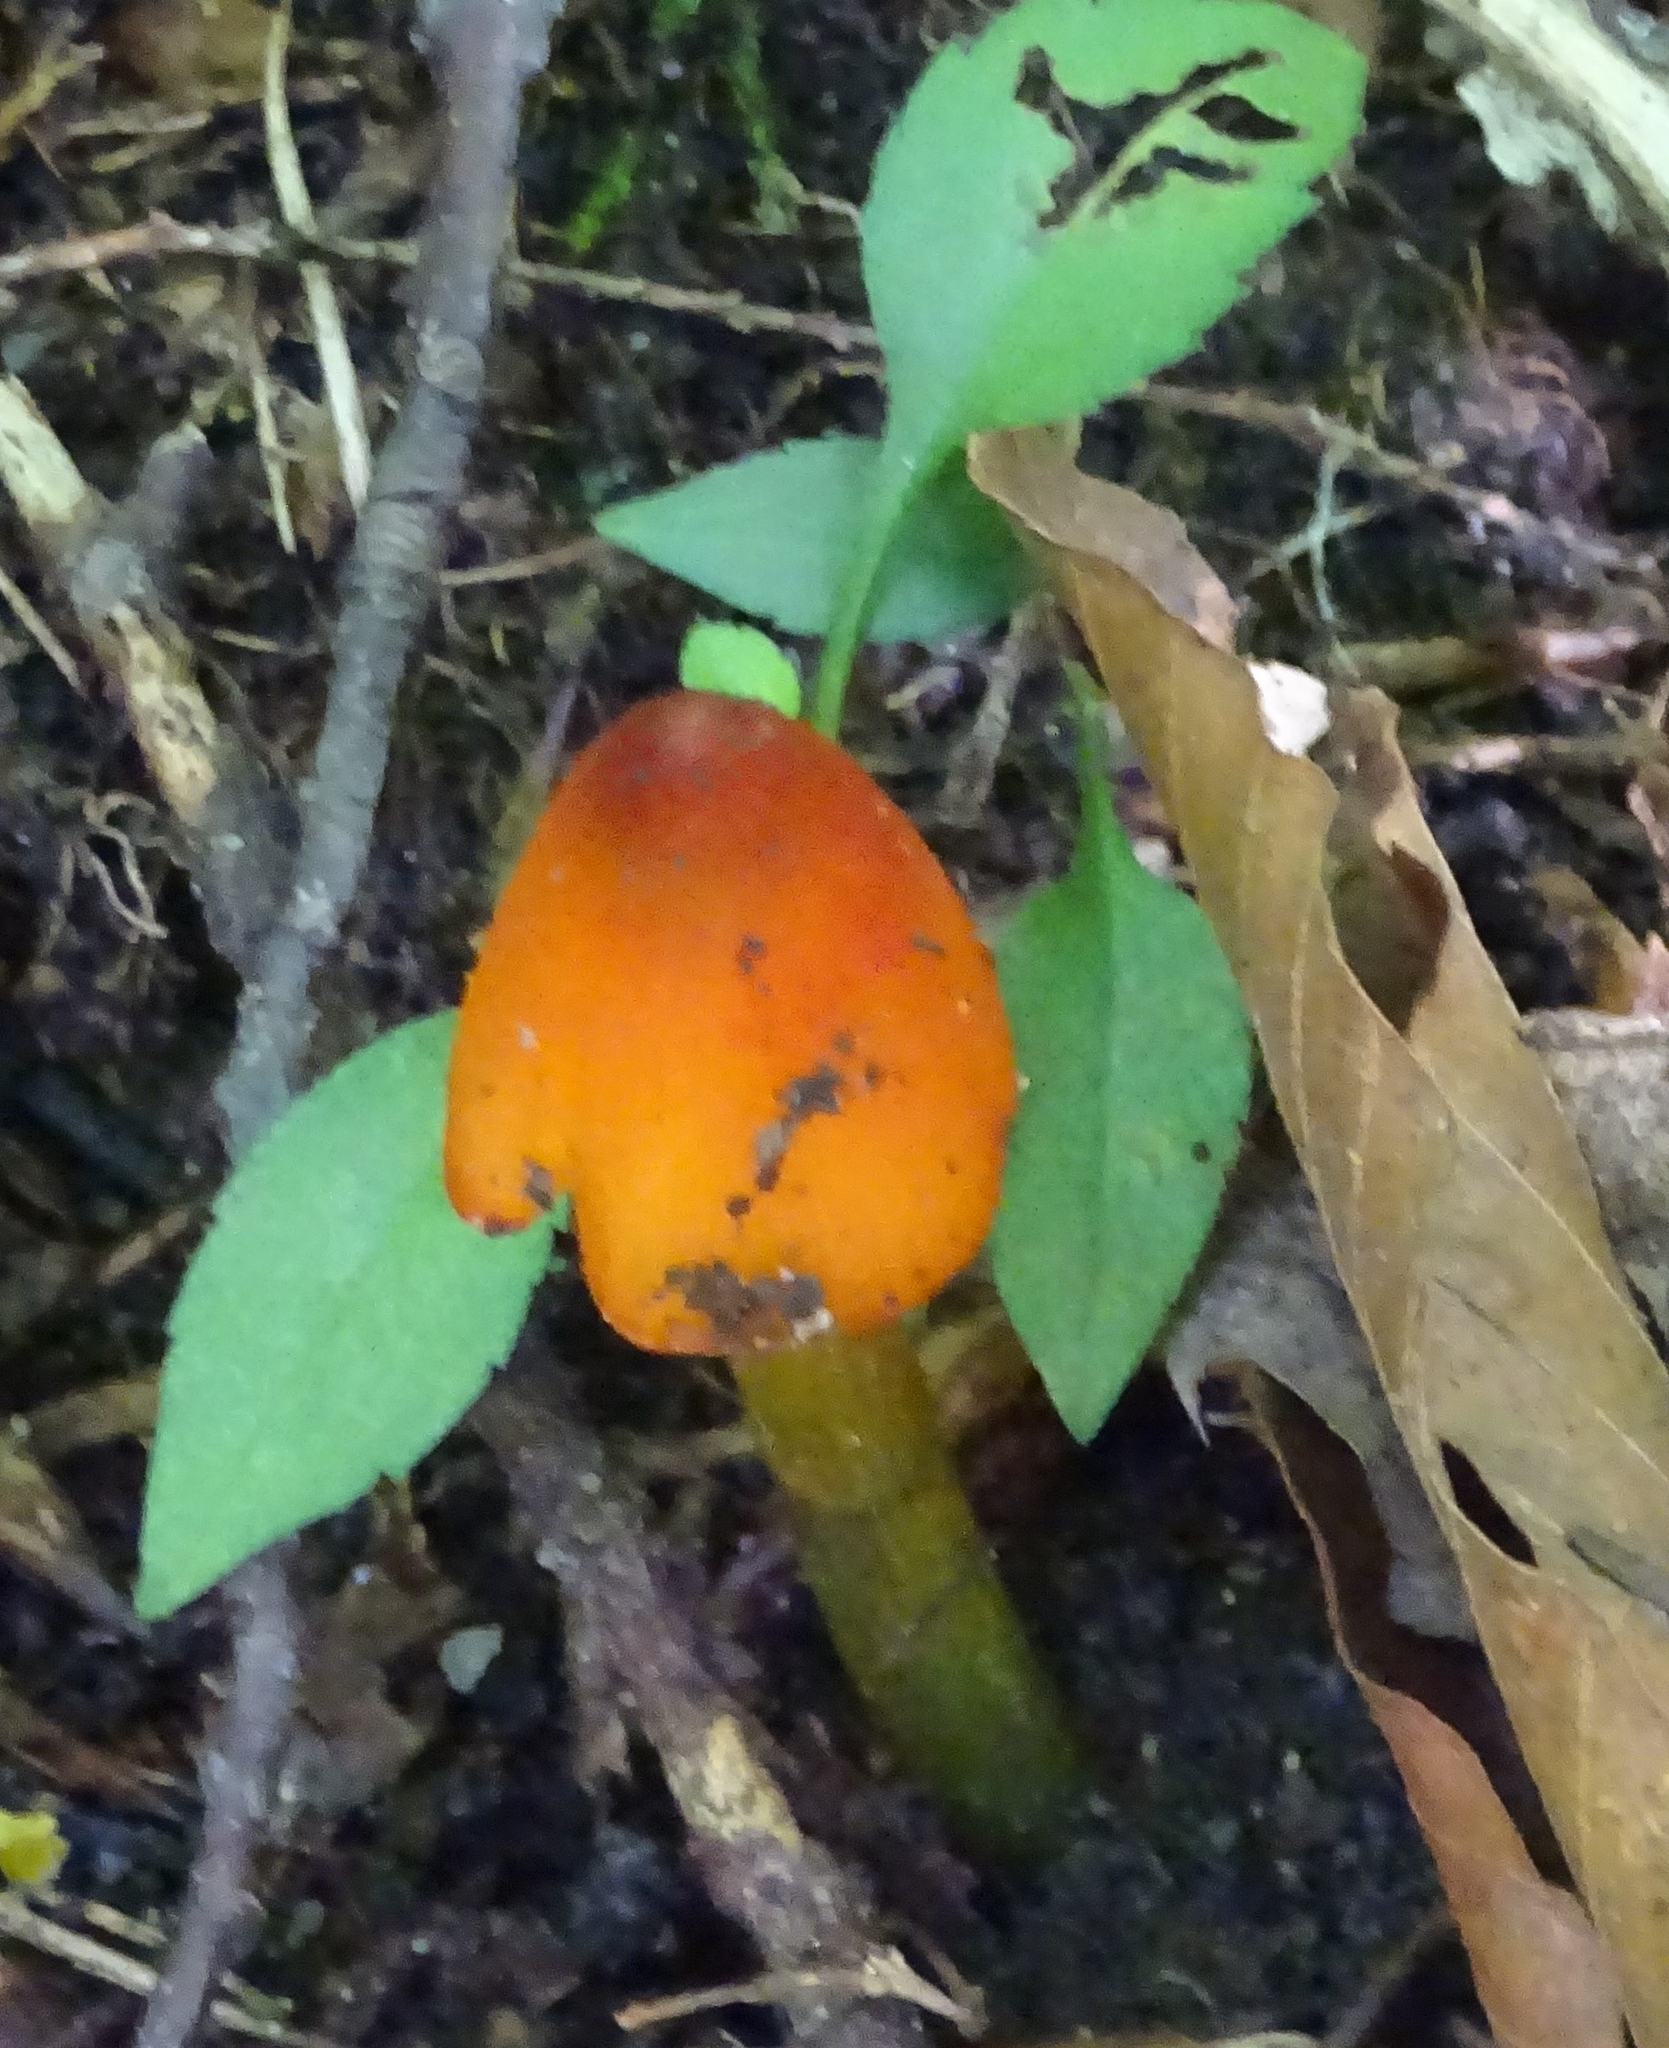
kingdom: Fungi
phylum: Basidiomycota
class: Agaricomycetes
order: Agaricales
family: Hygrophoraceae
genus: Hygrocybe
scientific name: Hygrocybe conica
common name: Blackening wax-cap
